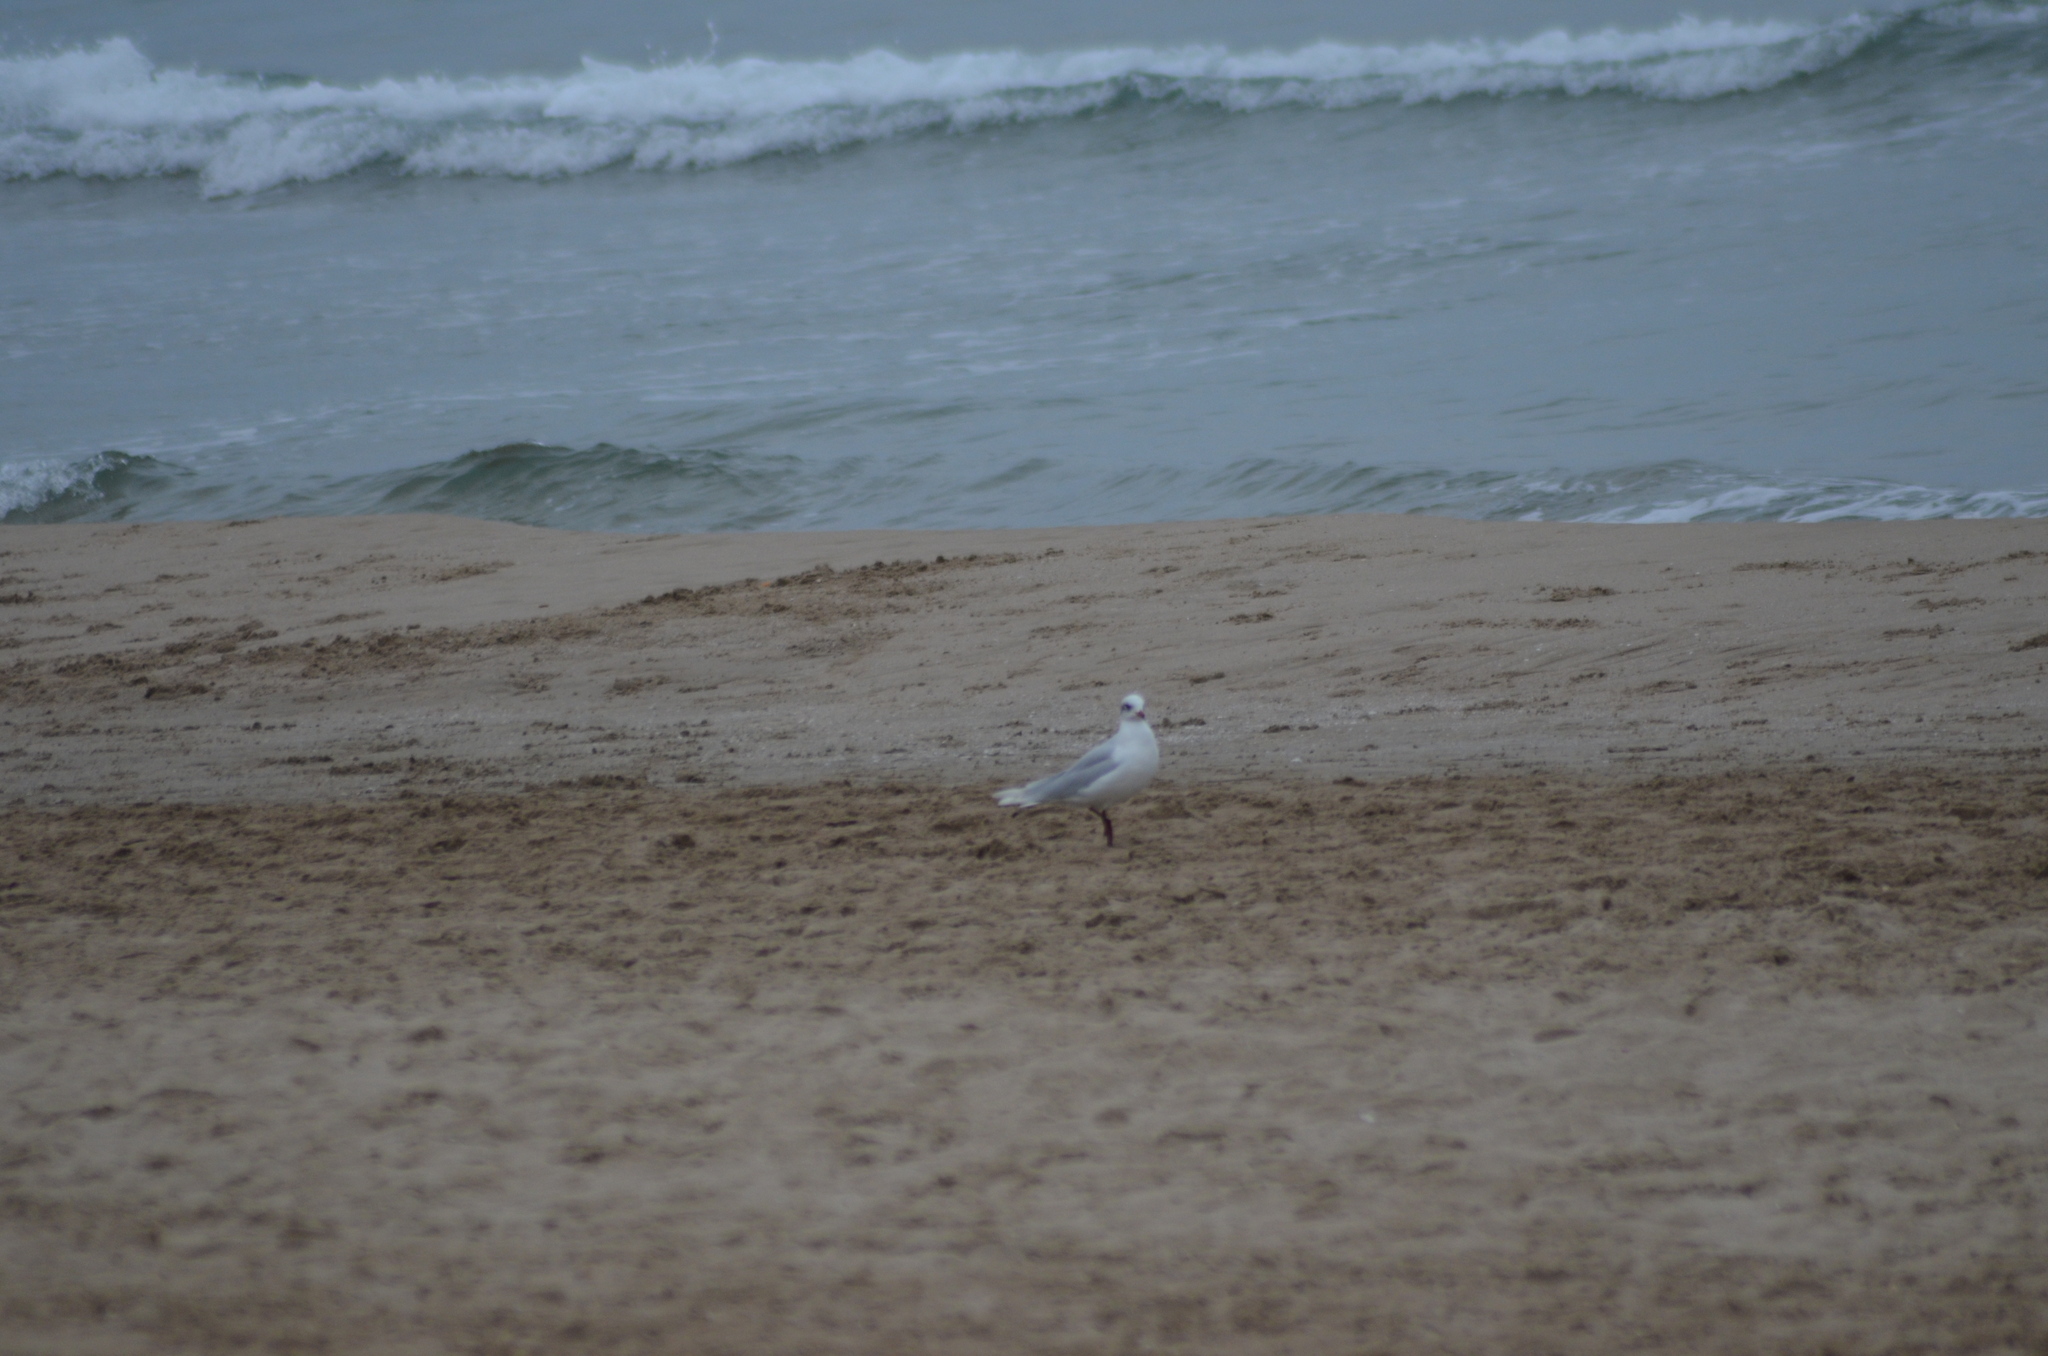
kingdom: Animalia
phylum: Chordata
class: Aves
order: Charadriiformes
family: Laridae
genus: Ichthyaetus
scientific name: Ichthyaetus melanocephalus
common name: Mediterranean gull
